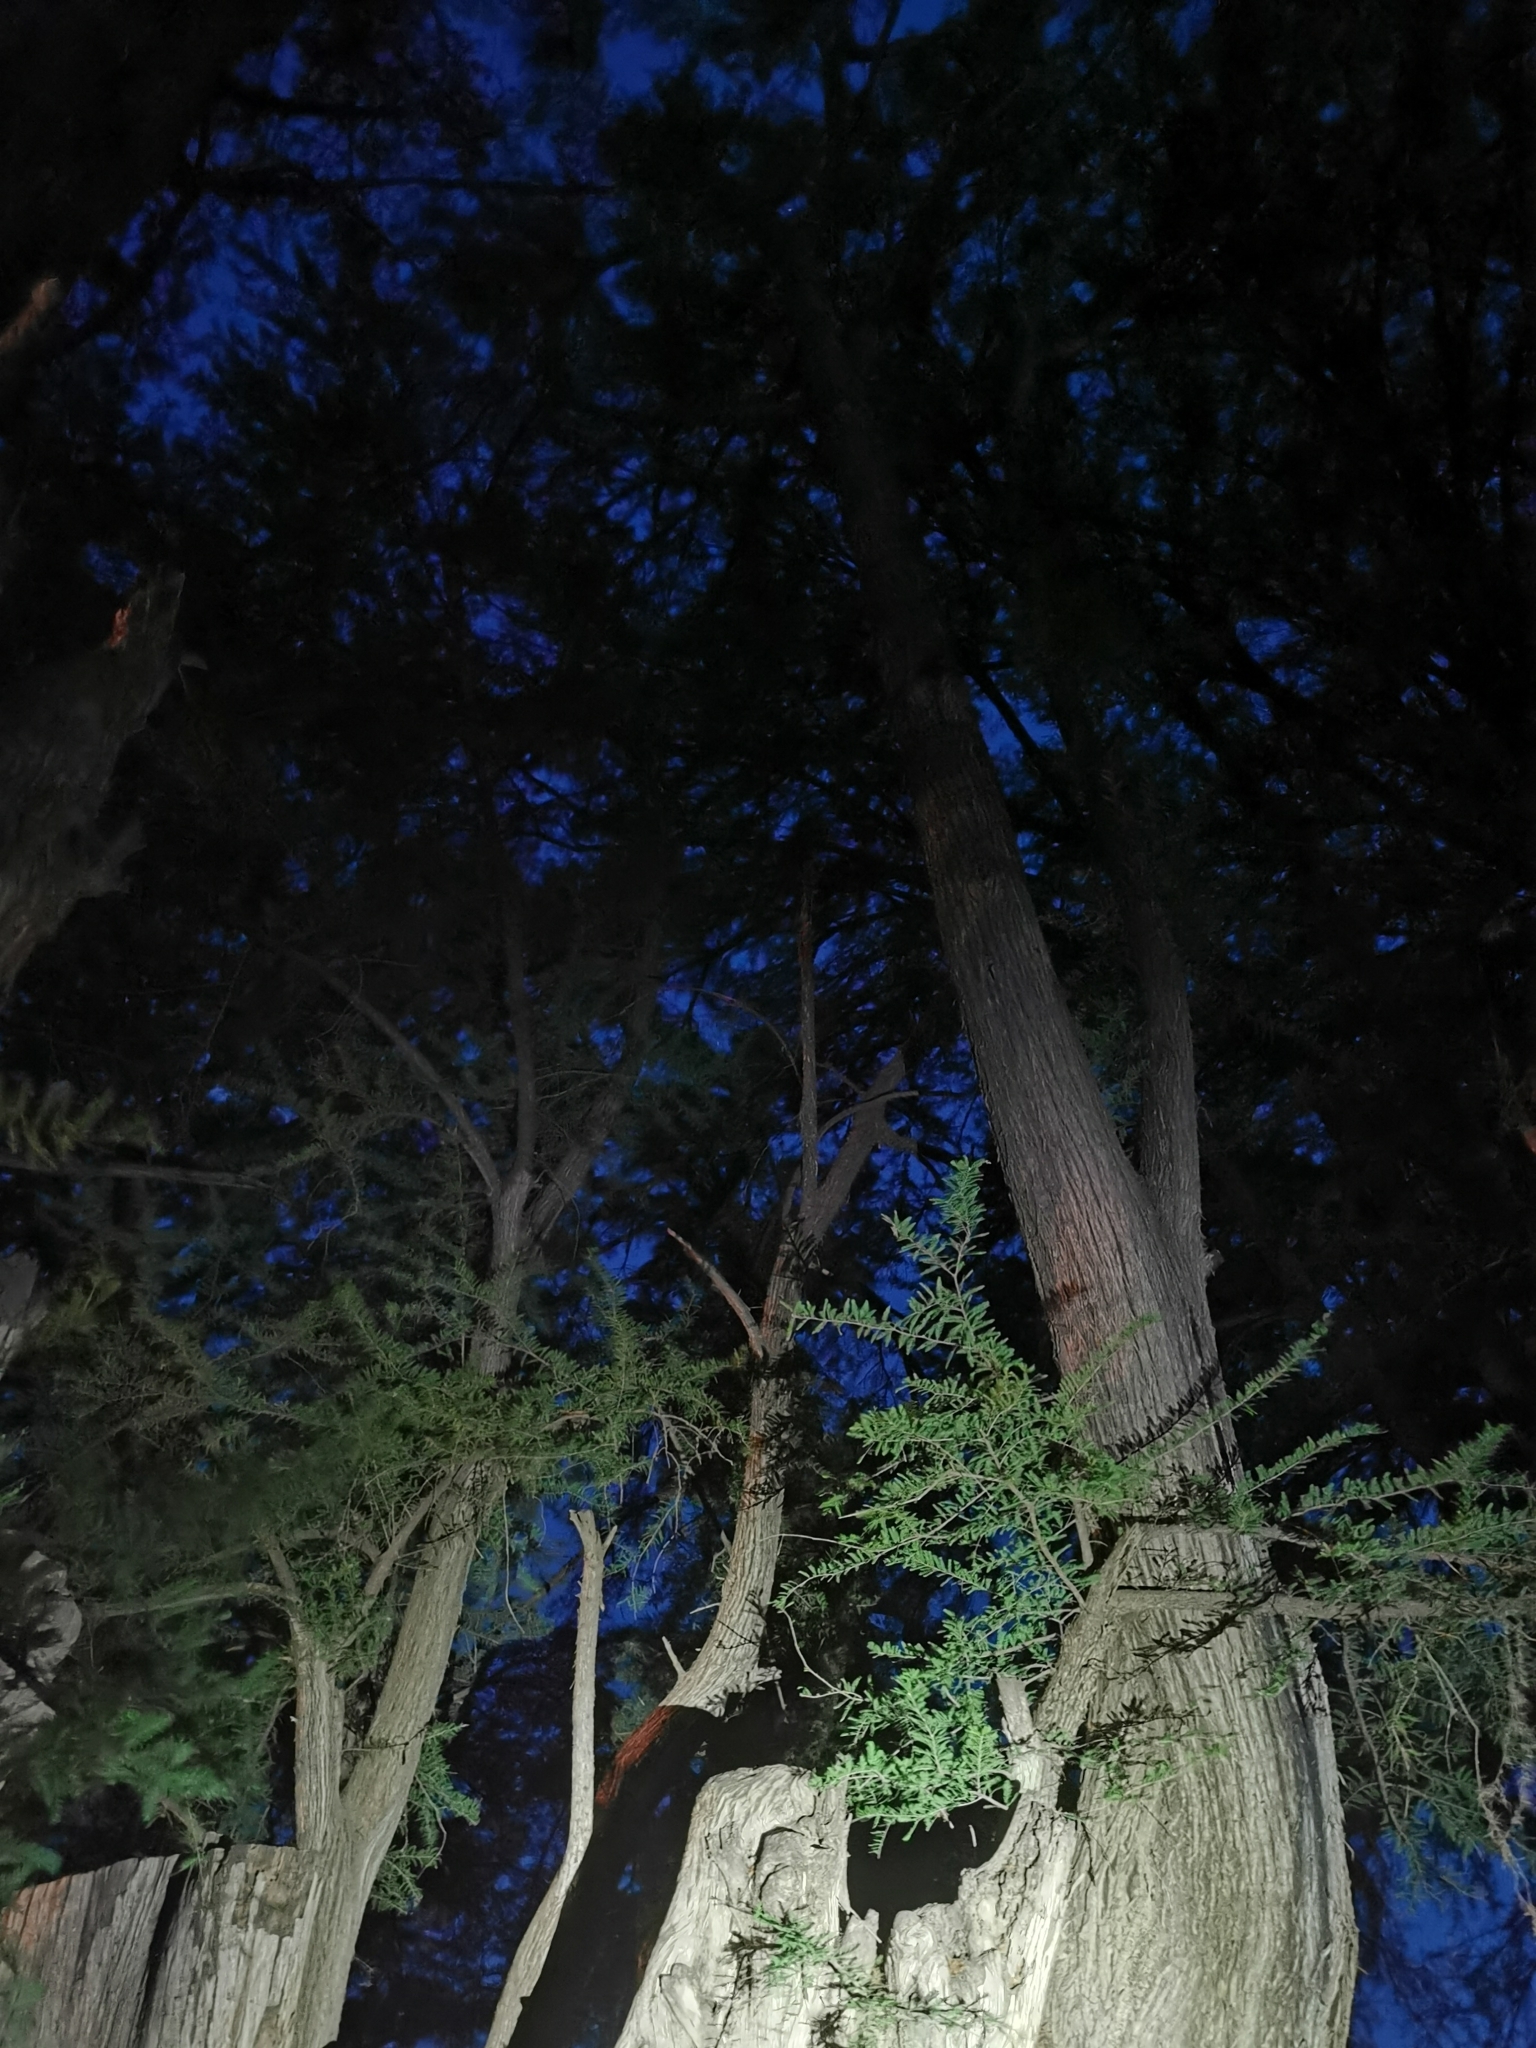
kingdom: Plantae
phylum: Tracheophyta
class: Pinopsida
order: Pinales
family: Cupressaceae
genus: Taxodium
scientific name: Taxodium mucronatum
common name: Montezume bald cypress
